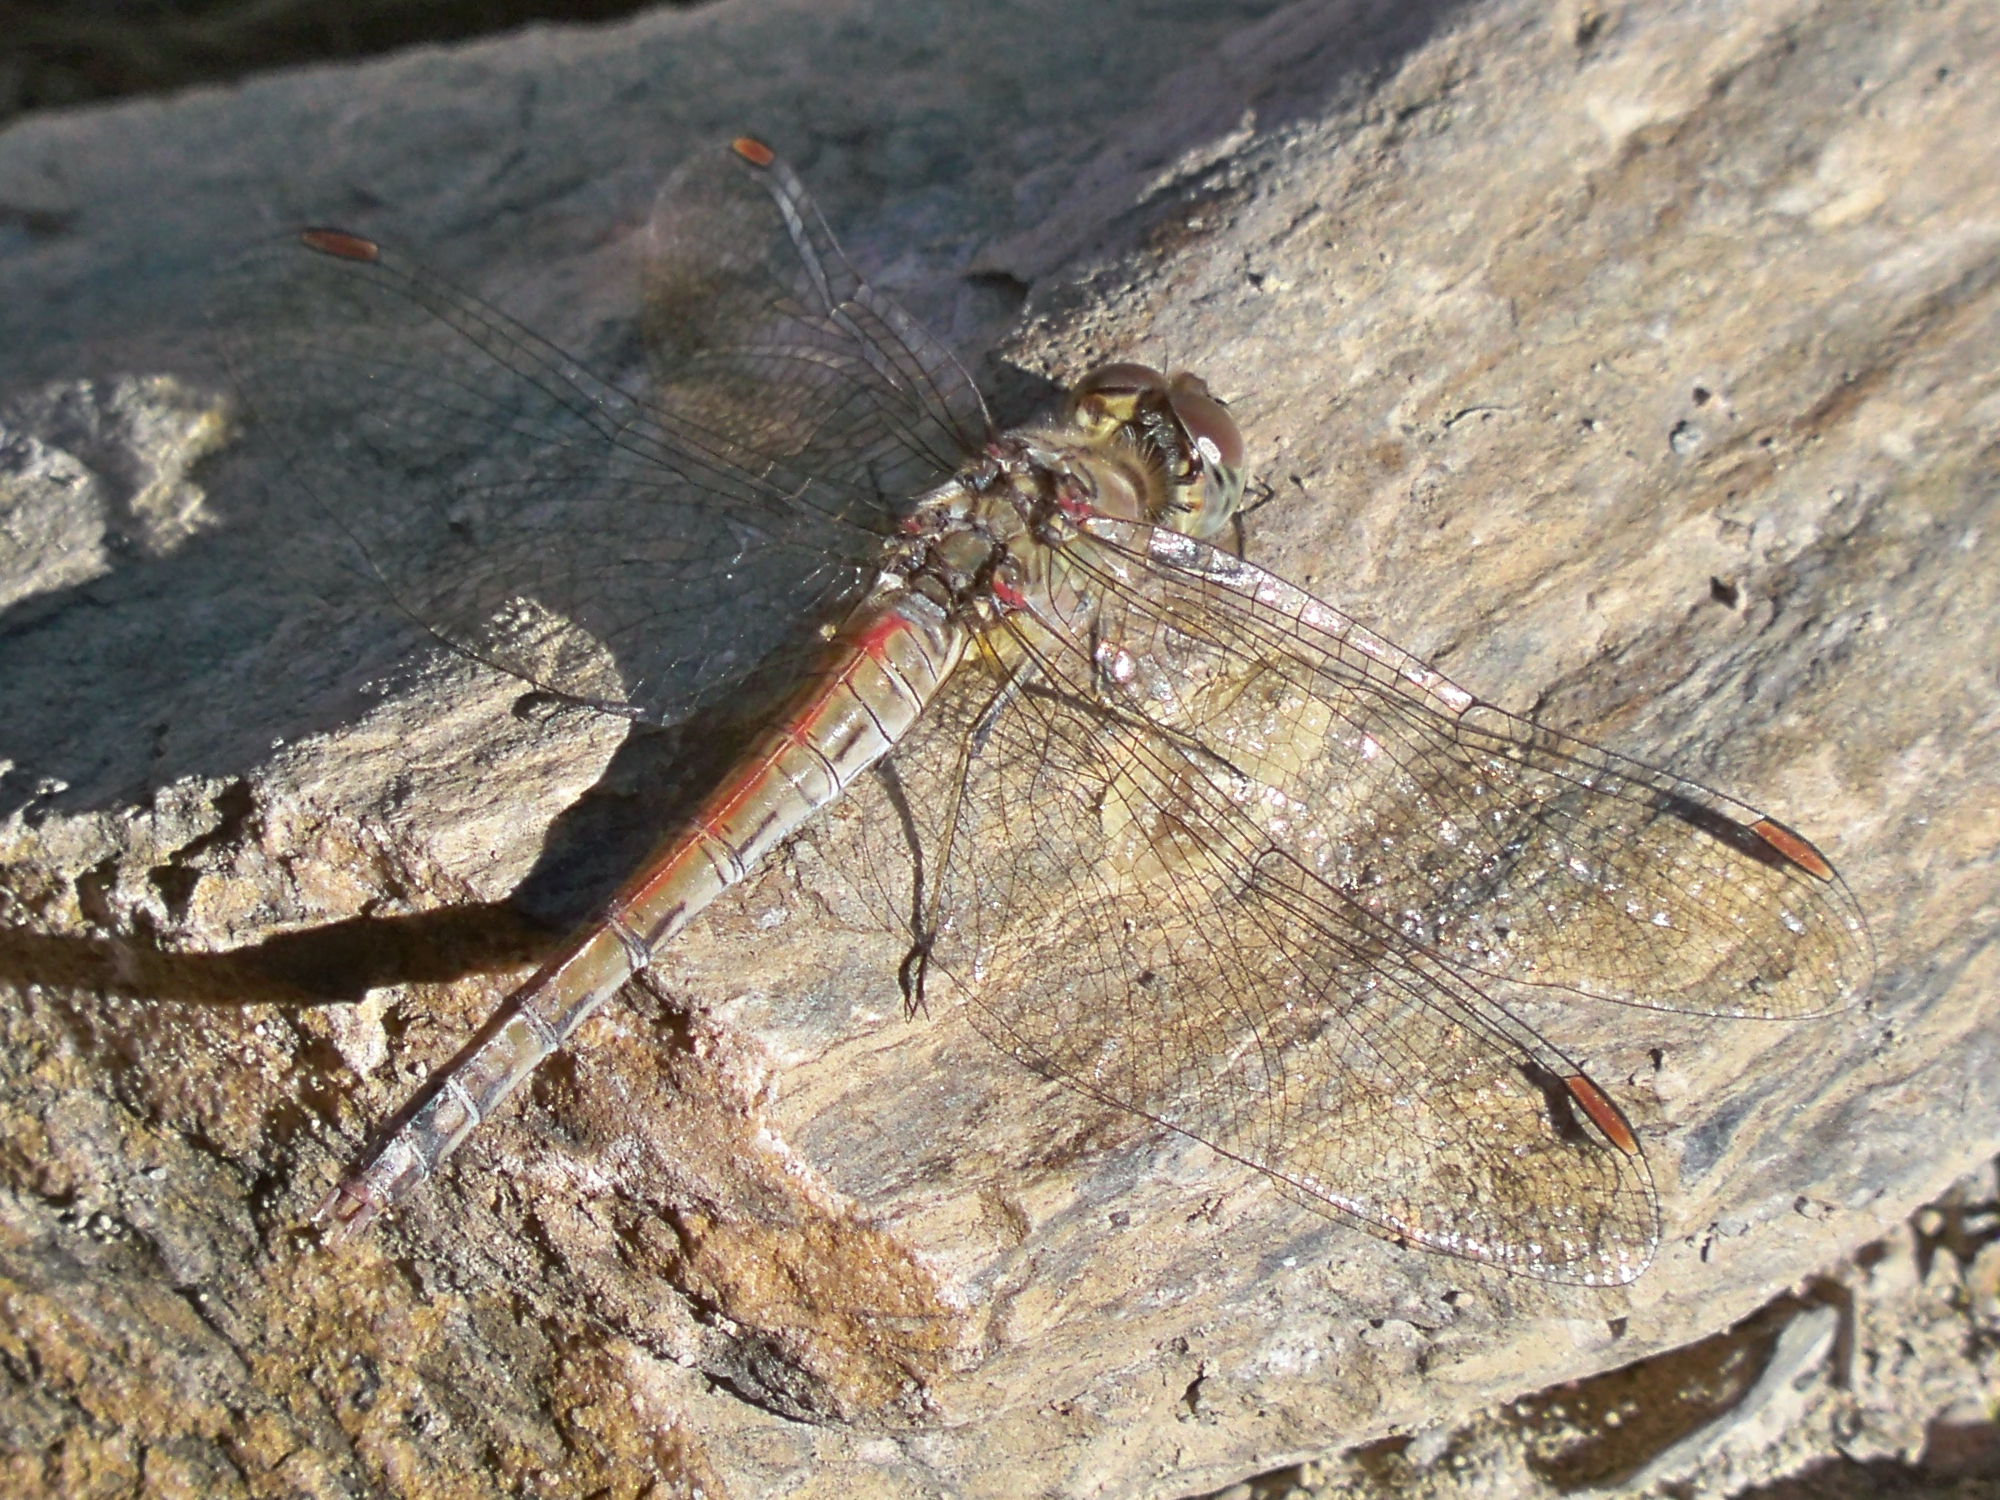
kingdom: Animalia
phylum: Arthropoda
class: Insecta
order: Odonata
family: Libellulidae
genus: Sympetrum
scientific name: Sympetrum striolatum
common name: Common darter
